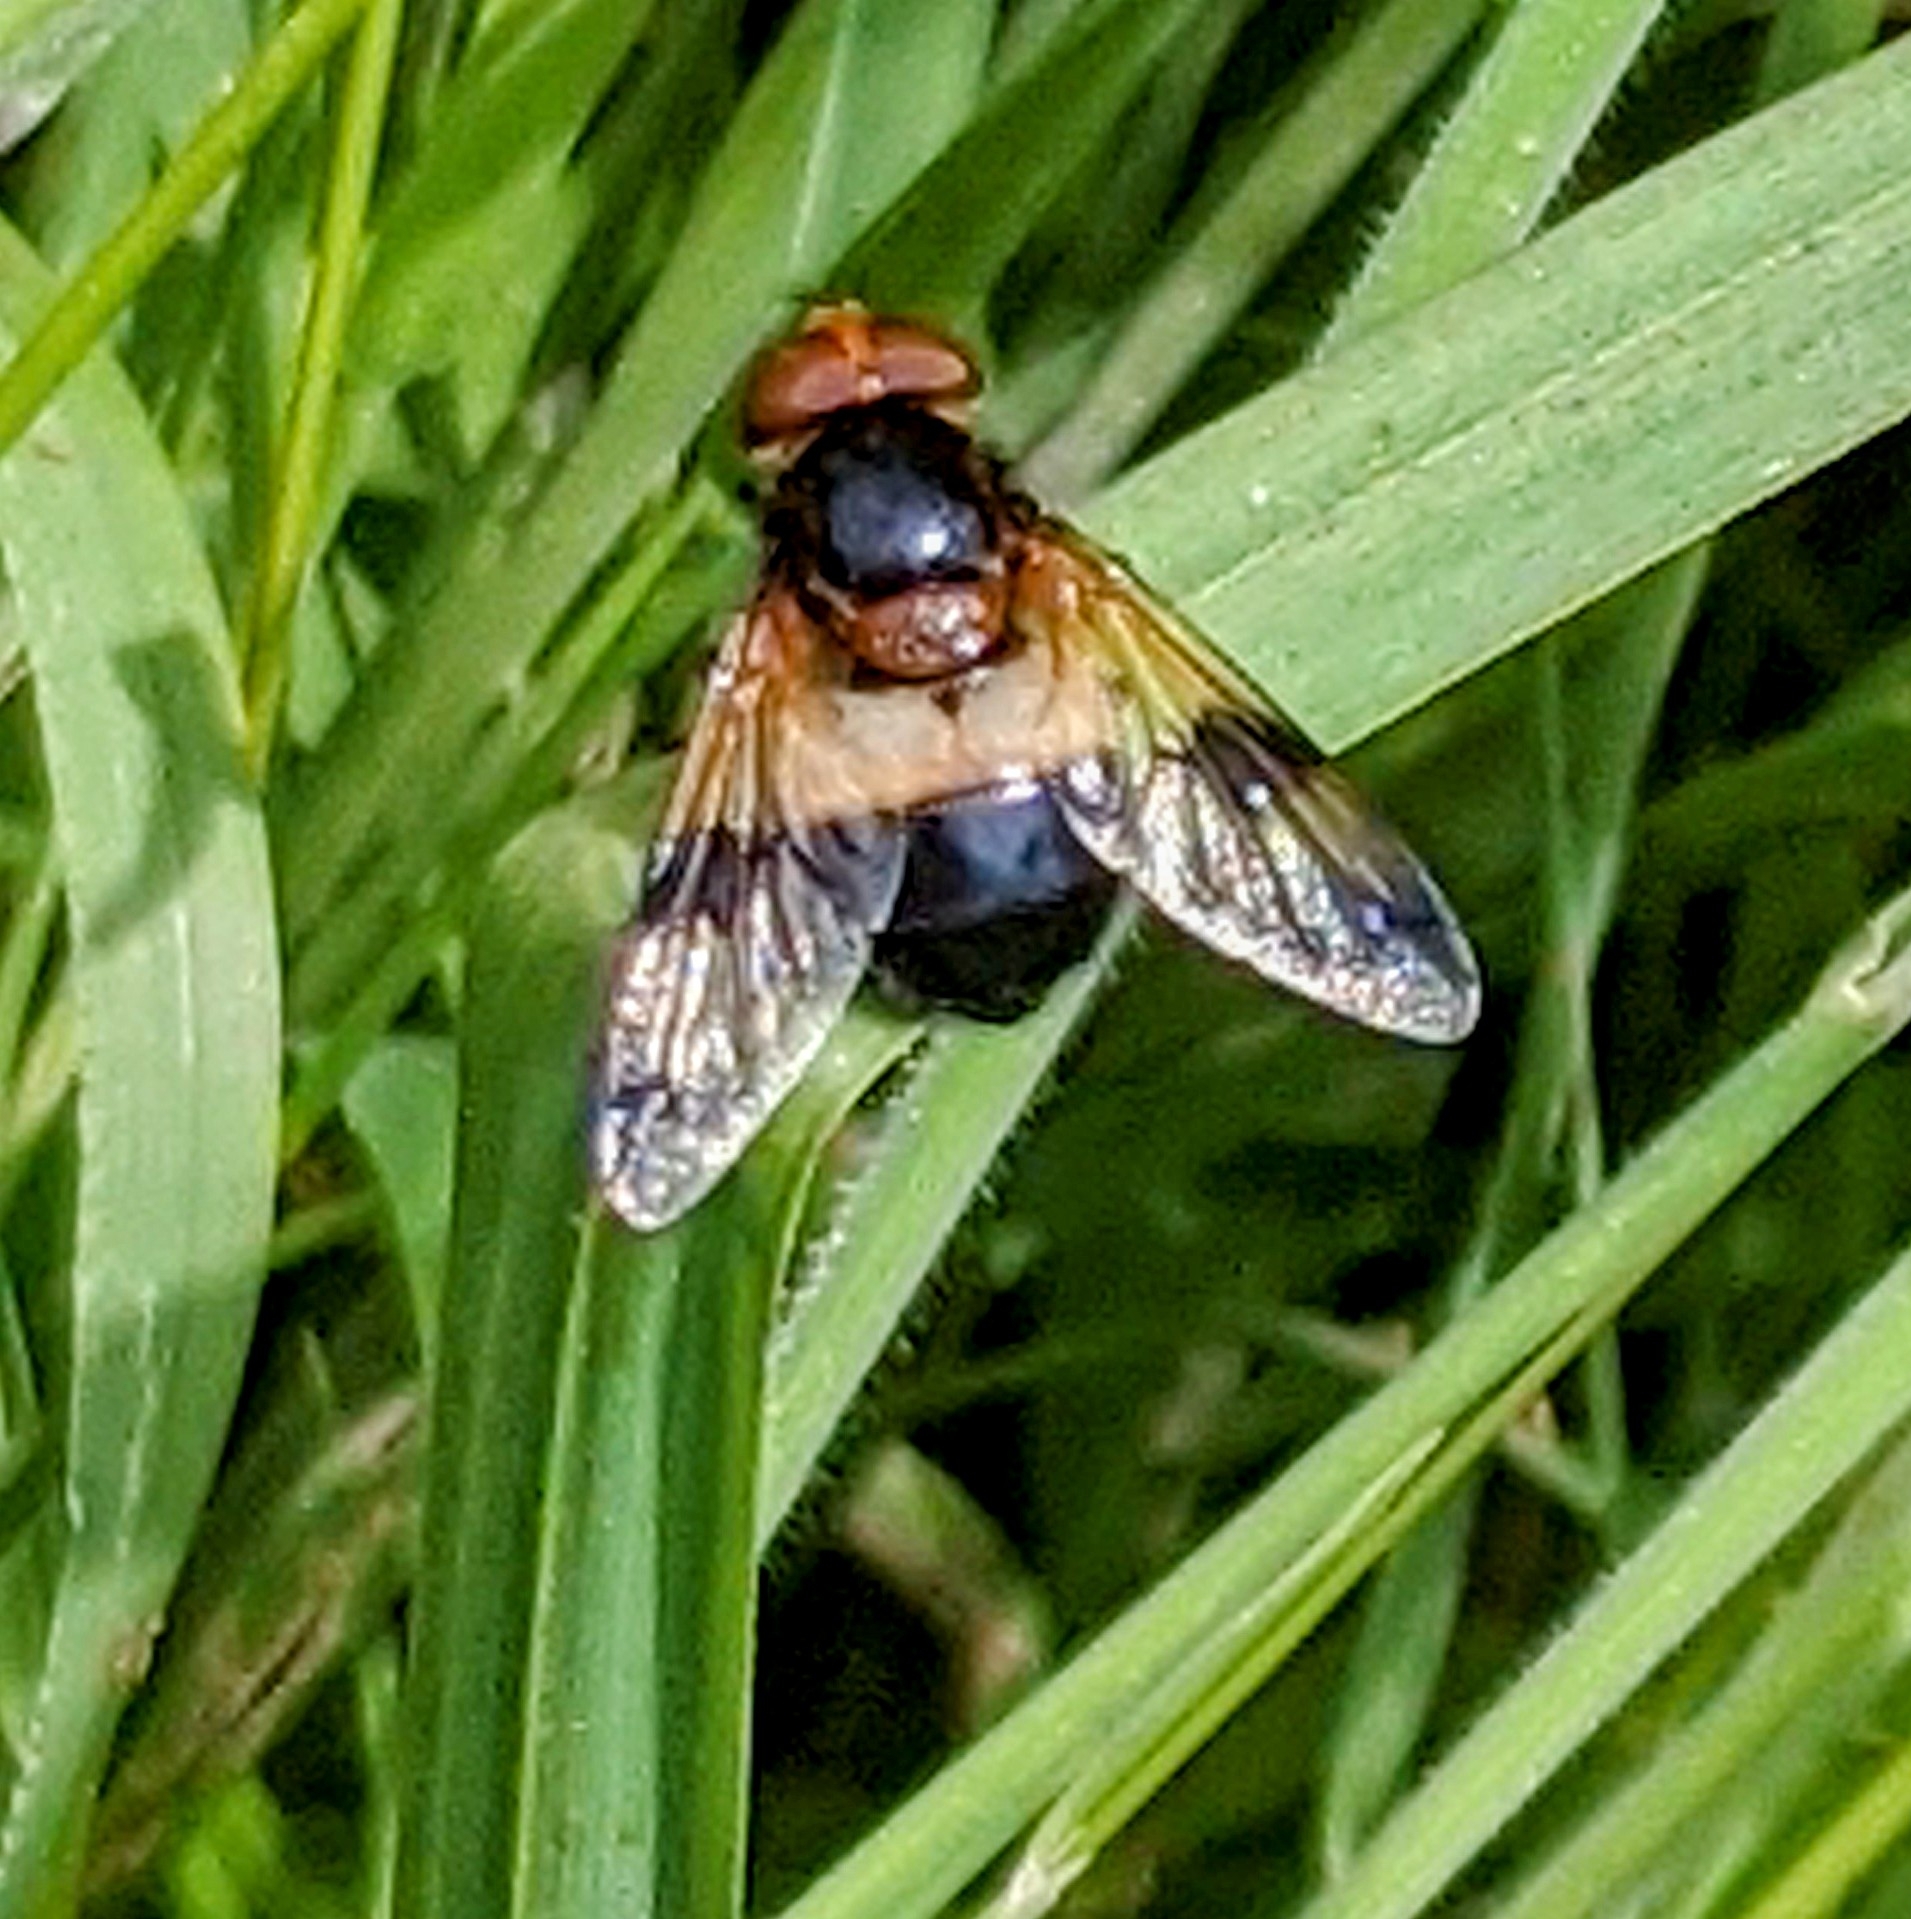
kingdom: Animalia
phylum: Arthropoda
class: Insecta
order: Diptera
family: Syrphidae
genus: Volucella
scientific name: Volucella pellucens
